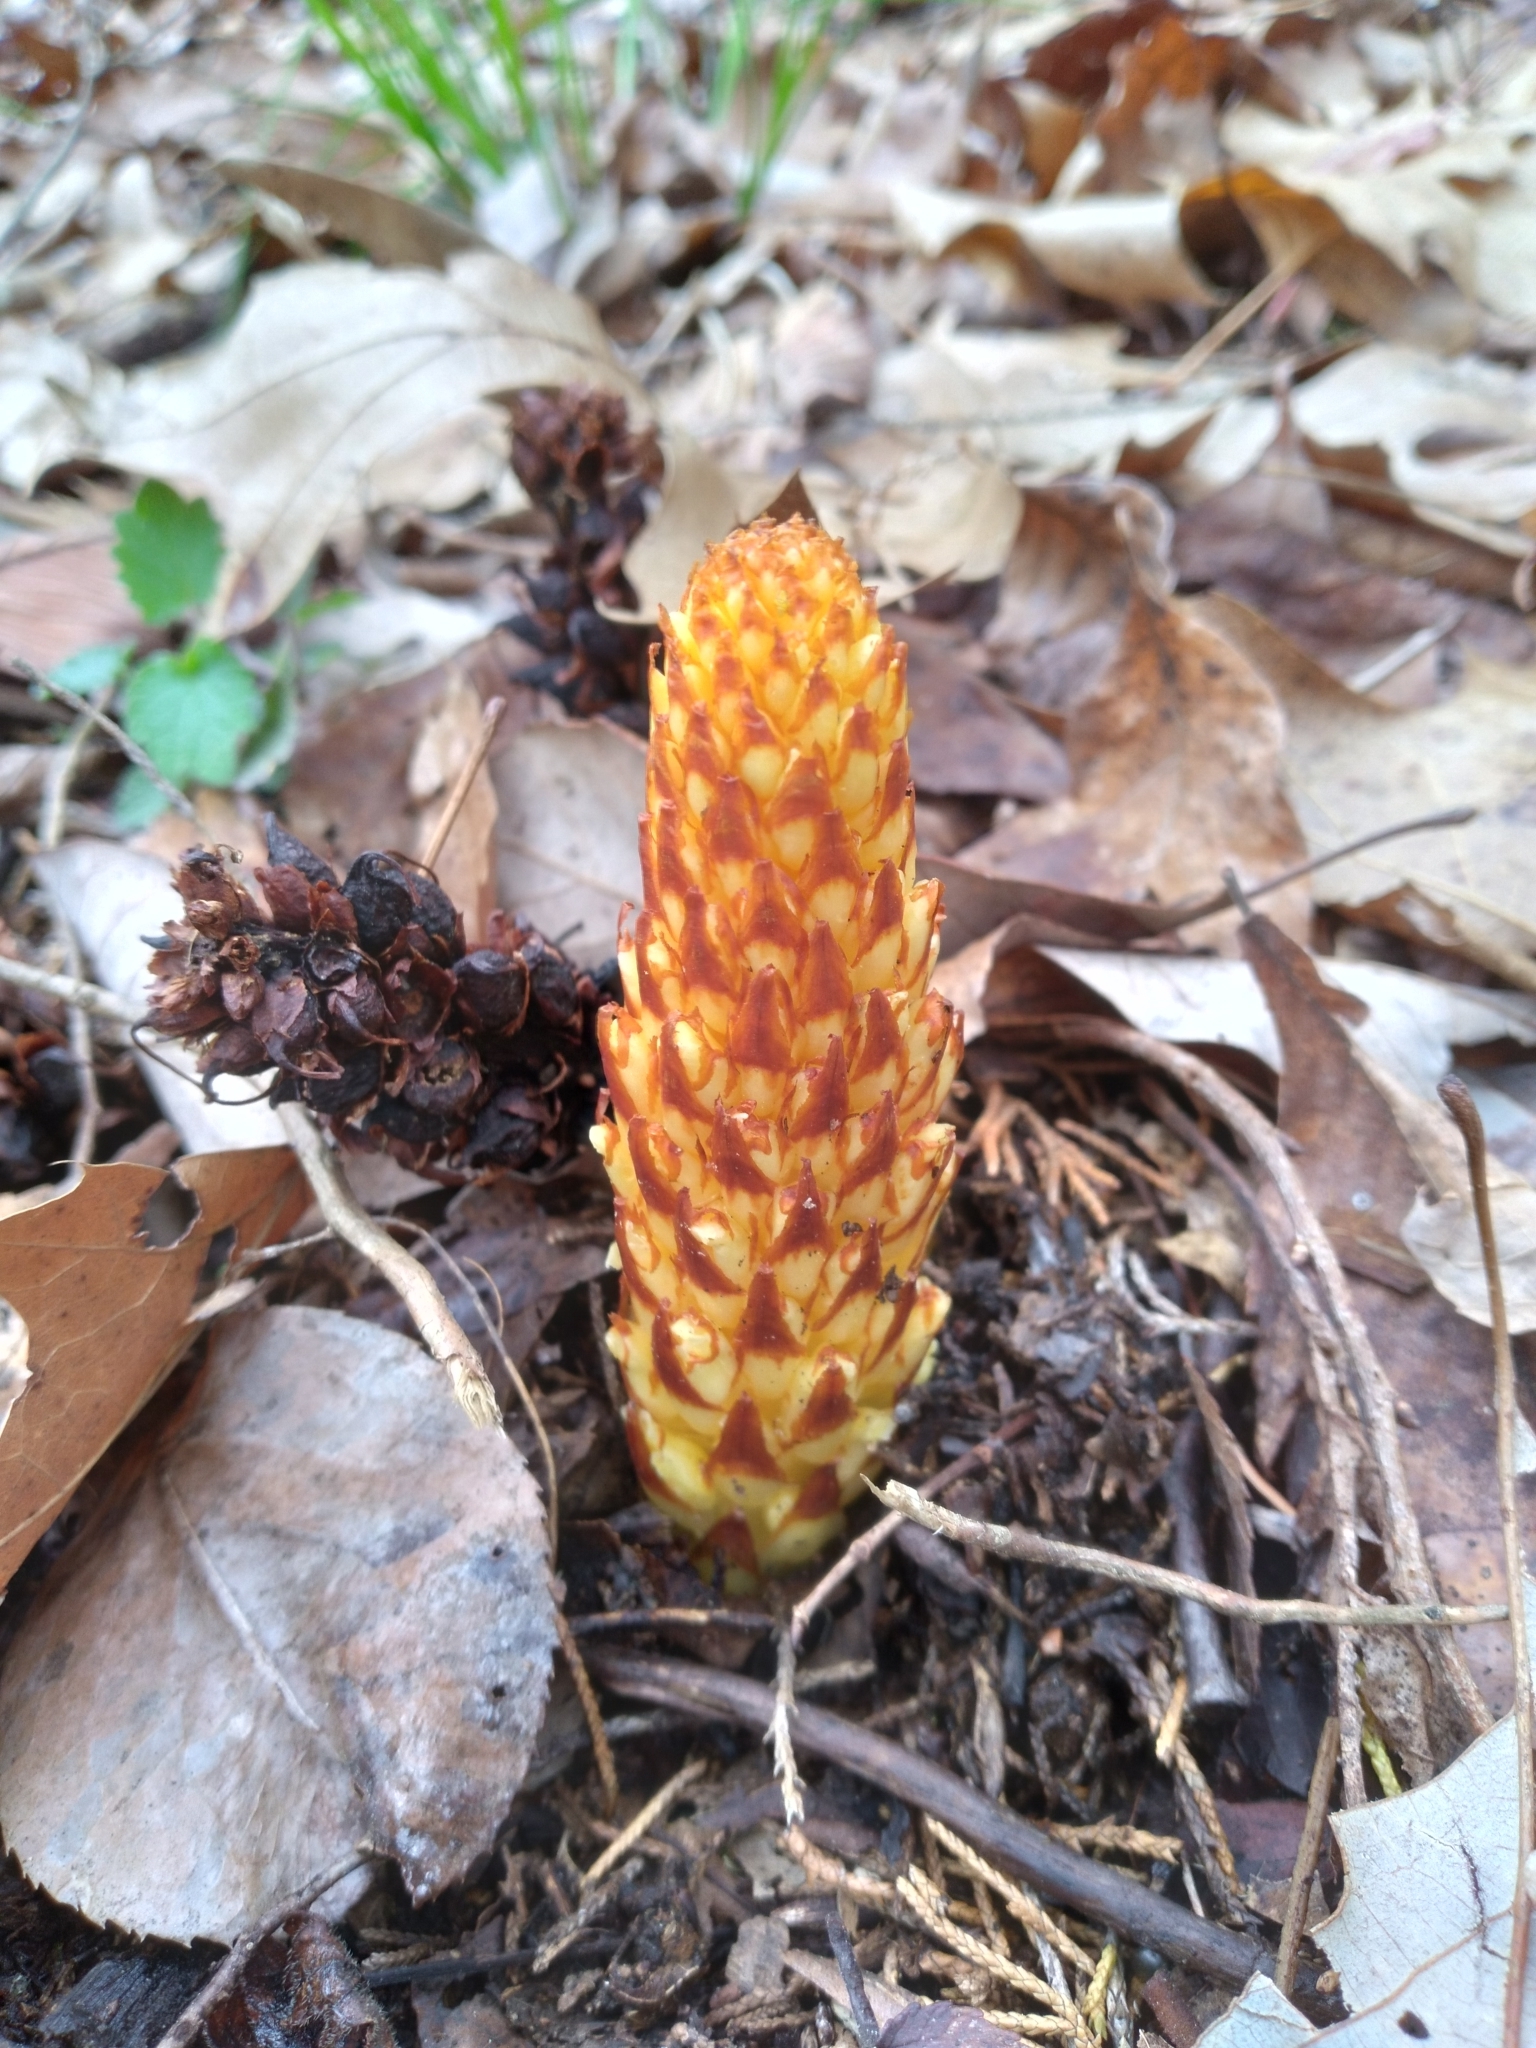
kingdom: Plantae
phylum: Tracheophyta
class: Magnoliopsida
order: Lamiales
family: Orobanchaceae
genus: Conopholis
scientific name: Conopholis americana
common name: American cancer-root
